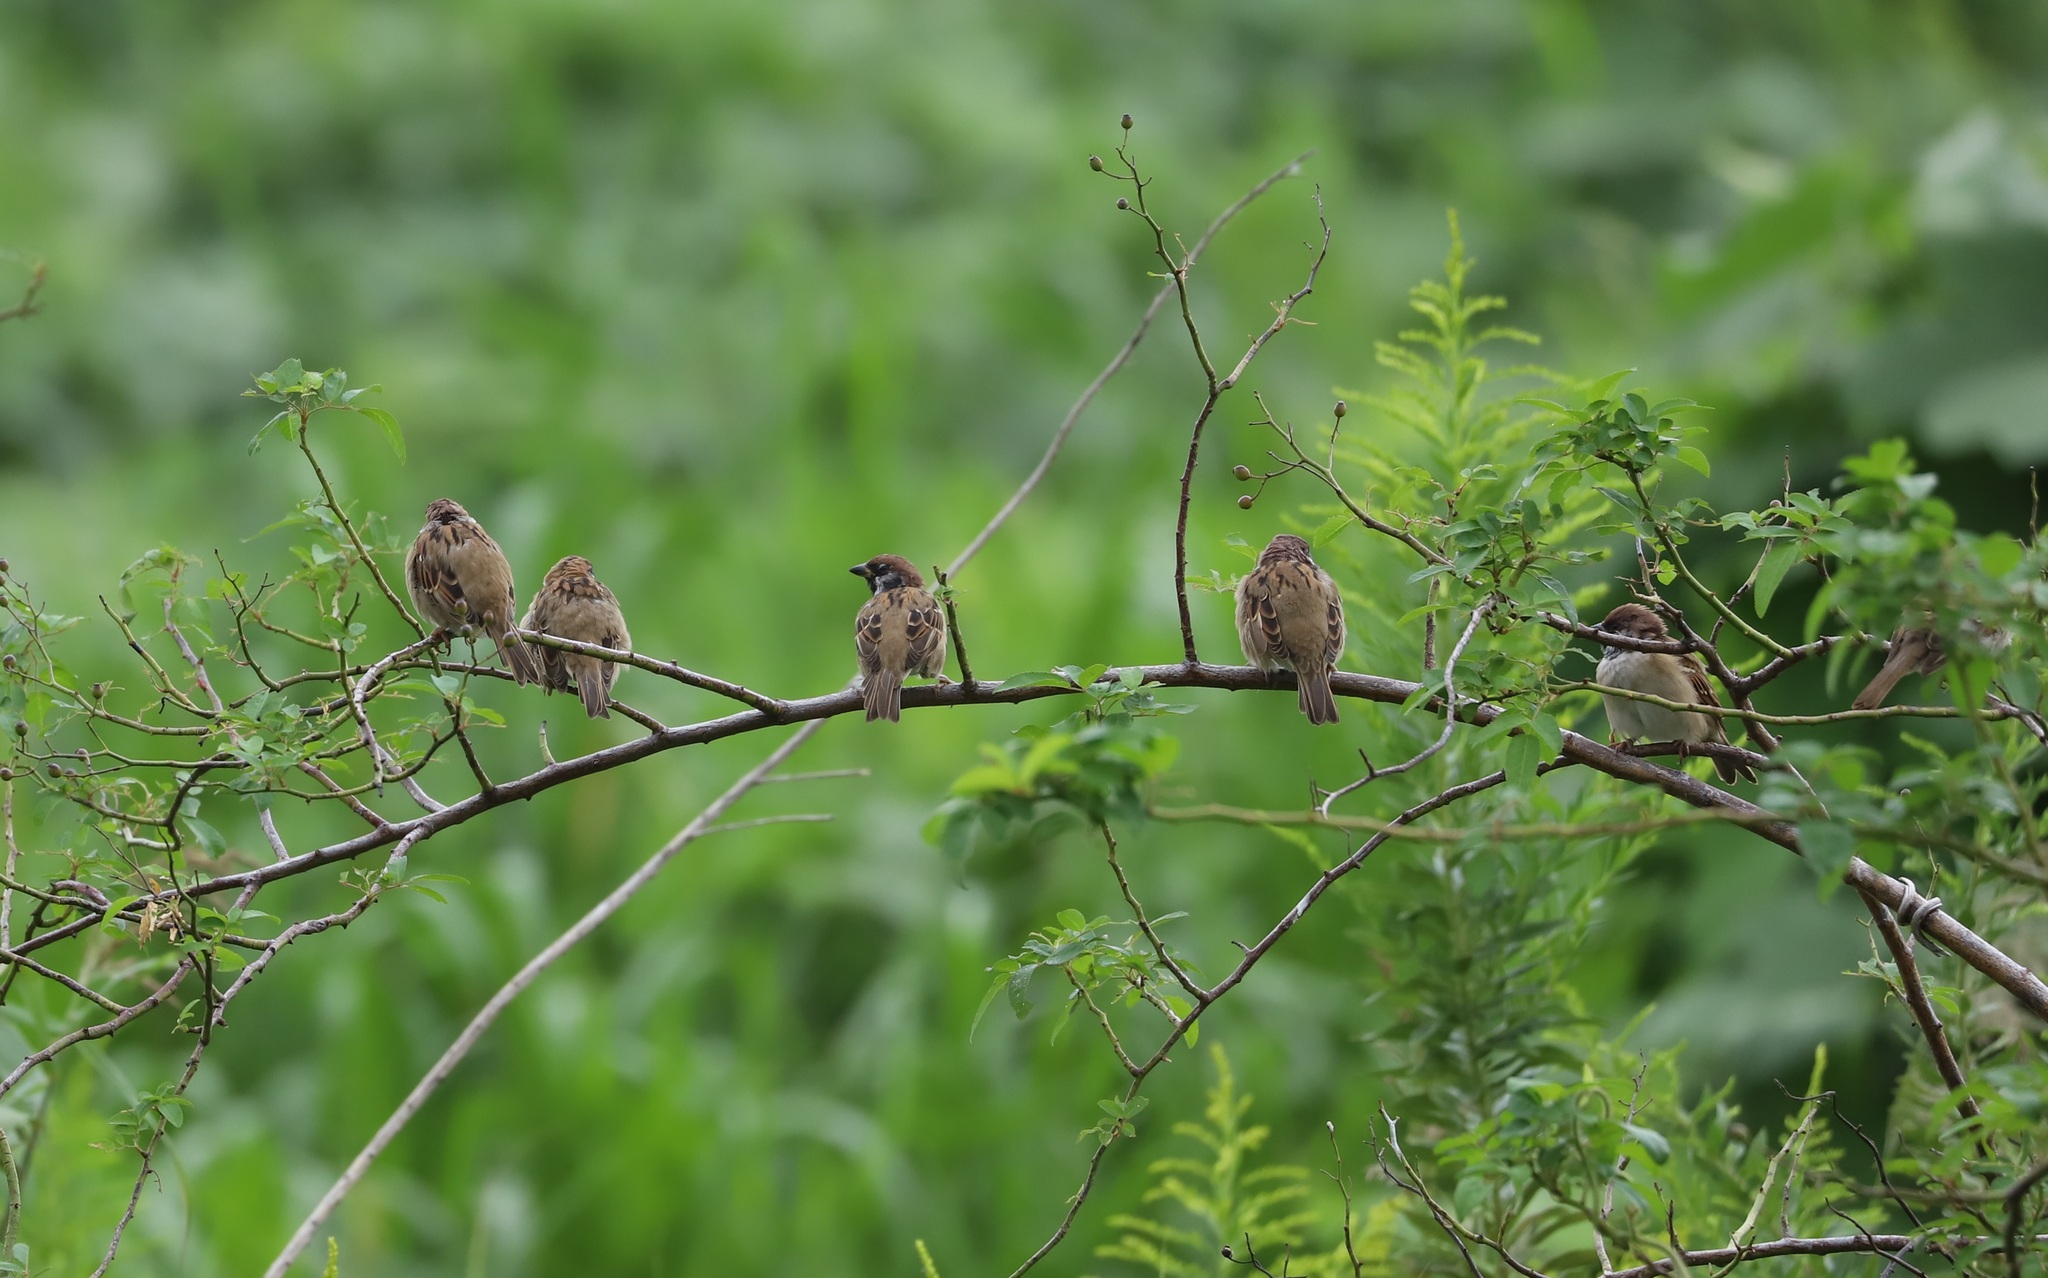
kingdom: Animalia
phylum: Chordata
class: Aves
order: Passeriformes
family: Passeridae
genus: Passer
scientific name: Passer montanus
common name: Eurasian tree sparrow
